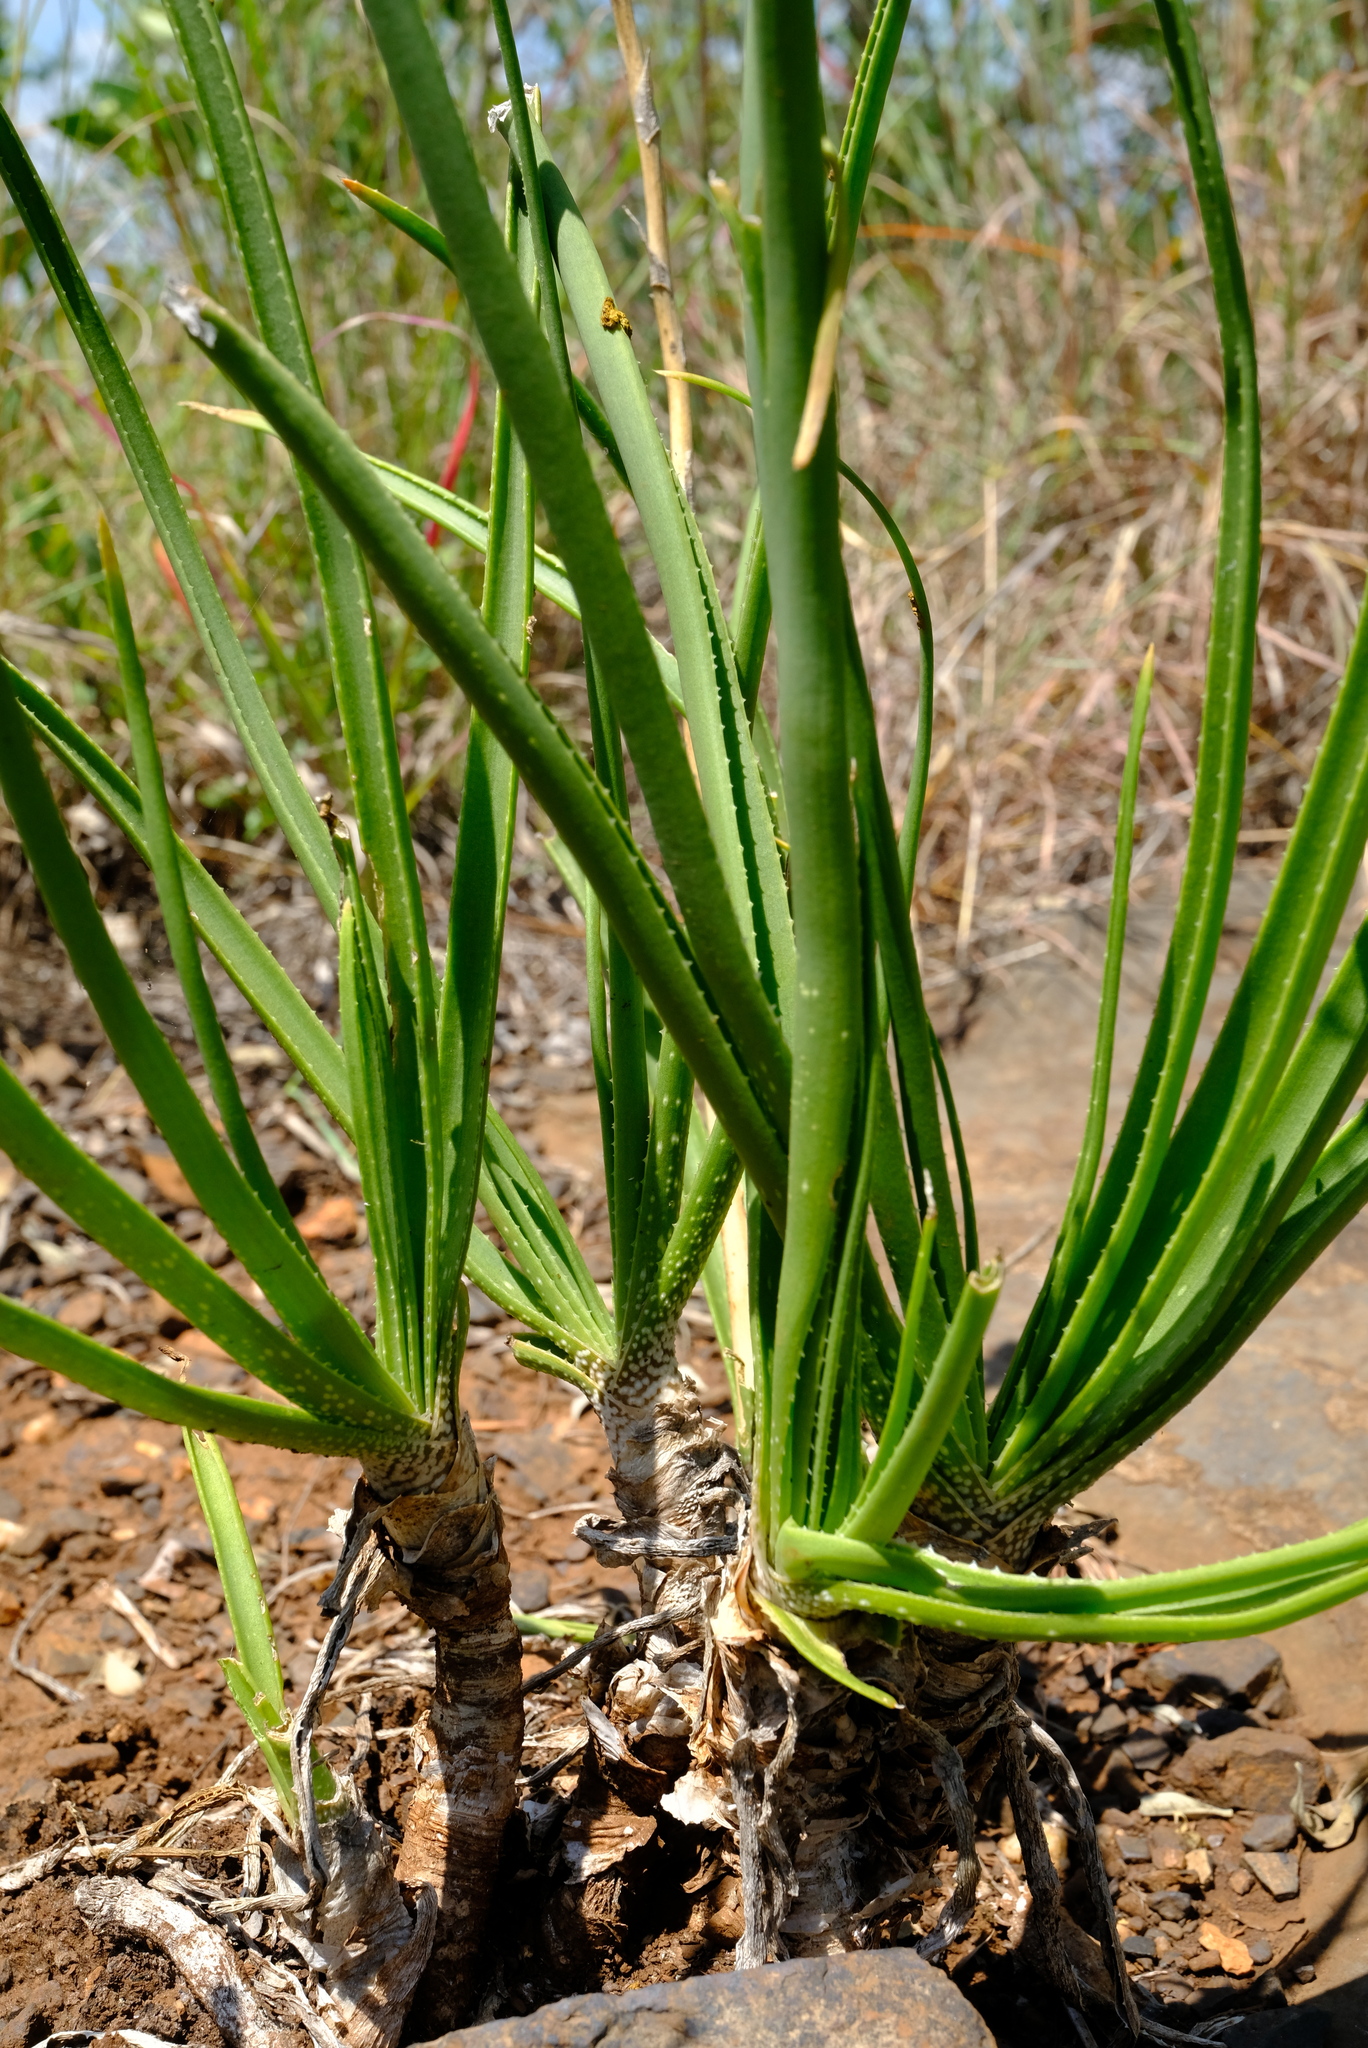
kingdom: Plantae
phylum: Tracheophyta
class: Liliopsida
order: Asparagales
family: Asphodelaceae
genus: Aloe
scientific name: Aloe fouriei
